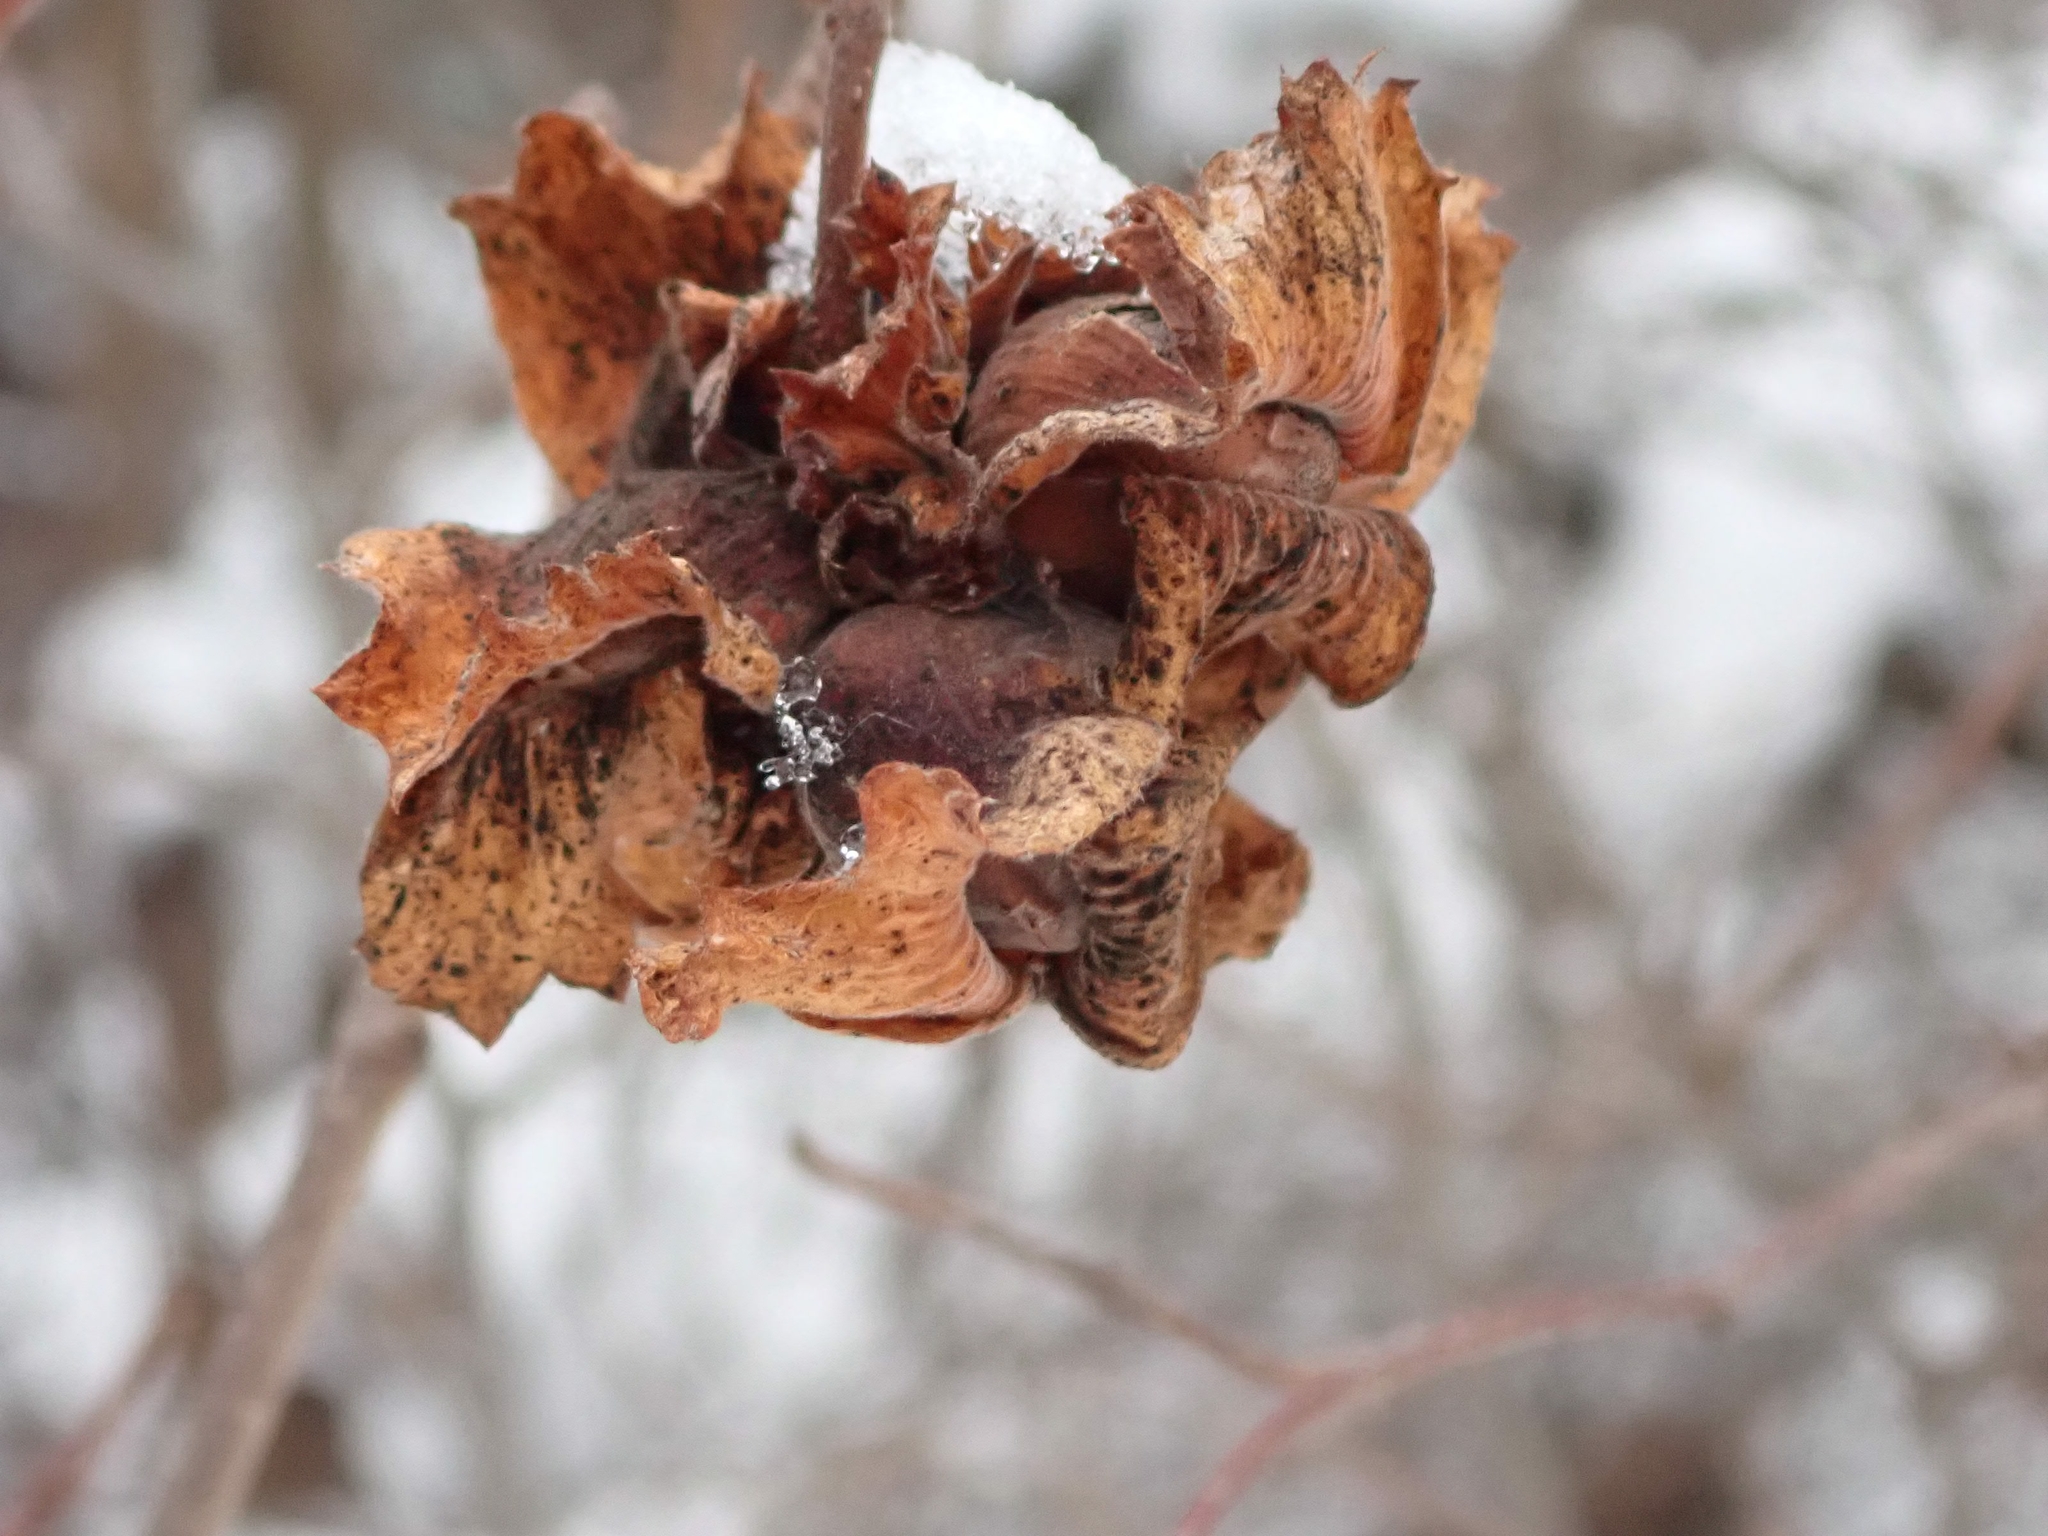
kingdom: Plantae
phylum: Tracheophyta
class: Magnoliopsida
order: Fagales
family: Betulaceae
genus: Corylus
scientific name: Corylus americana
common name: American hazel
